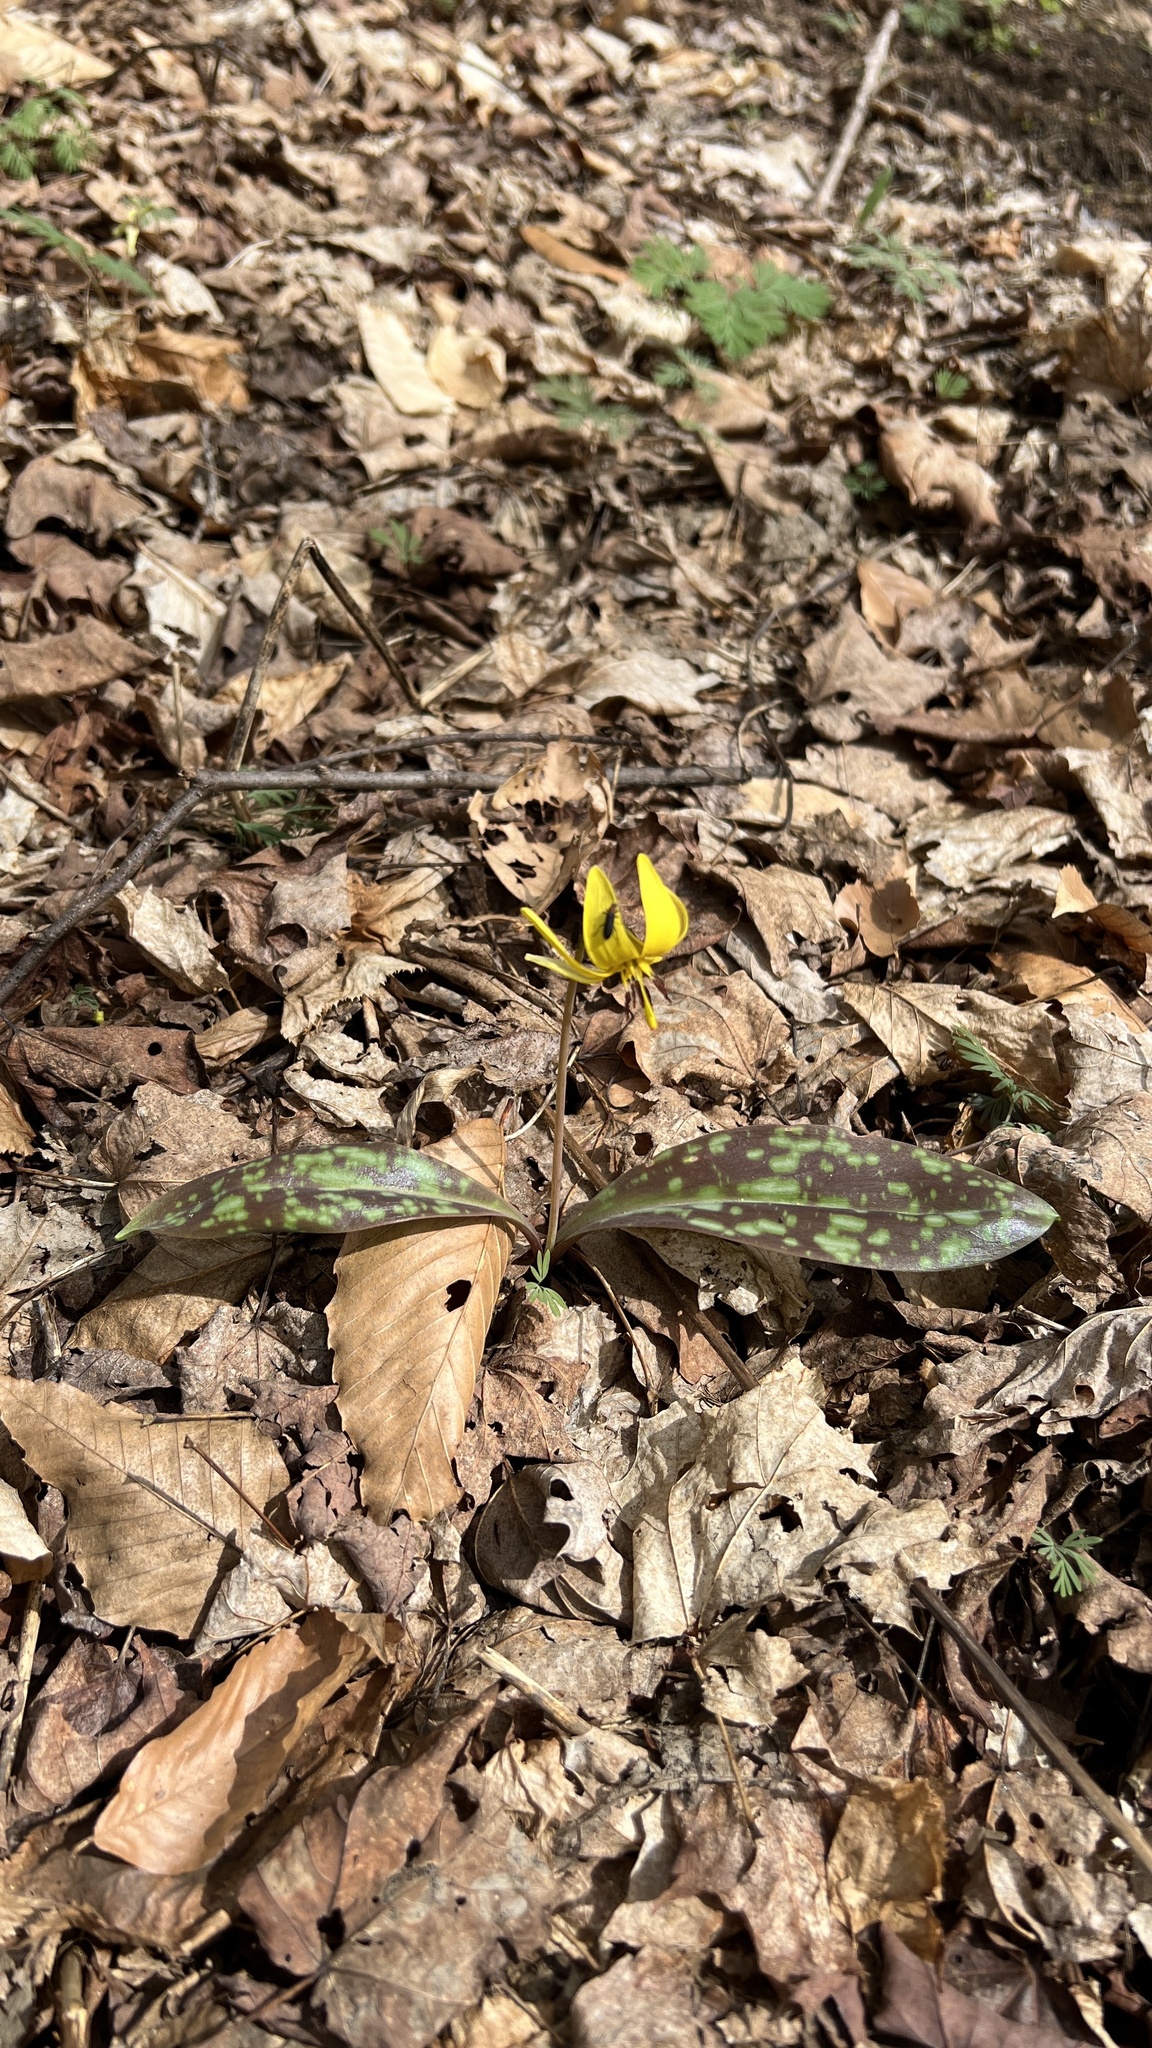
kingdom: Plantae
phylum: Tracheophyta
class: Liliopsida
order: Liliales
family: Liliaceae
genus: Erythronium
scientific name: Erythronium americanum
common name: Yellow adder's-tongue
